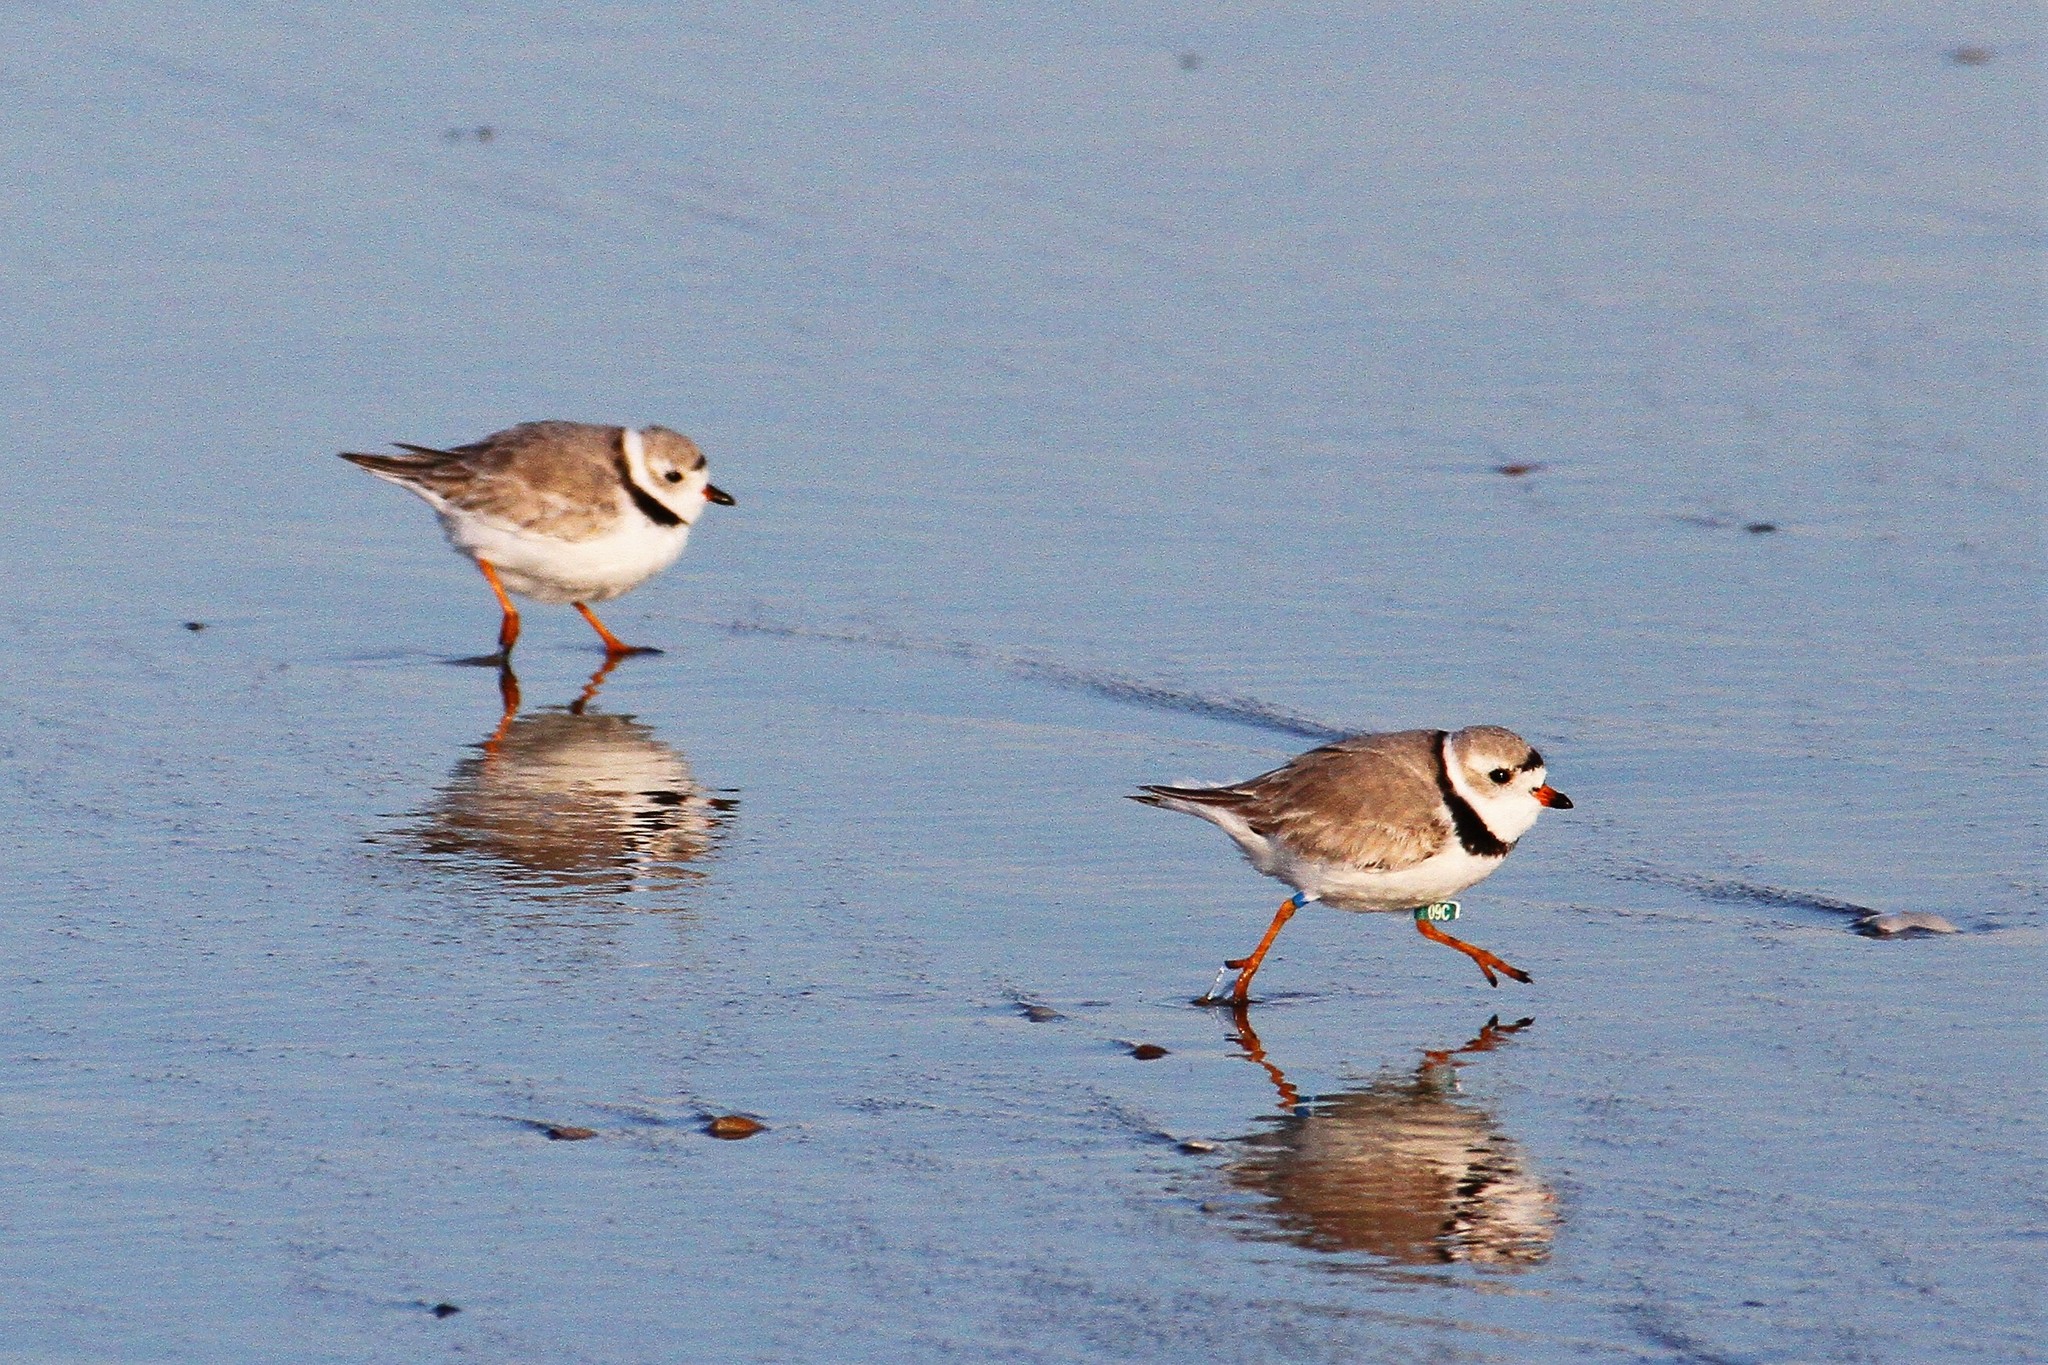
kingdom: Animalia
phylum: Chordata
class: Aves
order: Charadriiformes
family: Charadriidae
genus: Charadrius
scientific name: Charadrius melodus
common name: Piping plover
